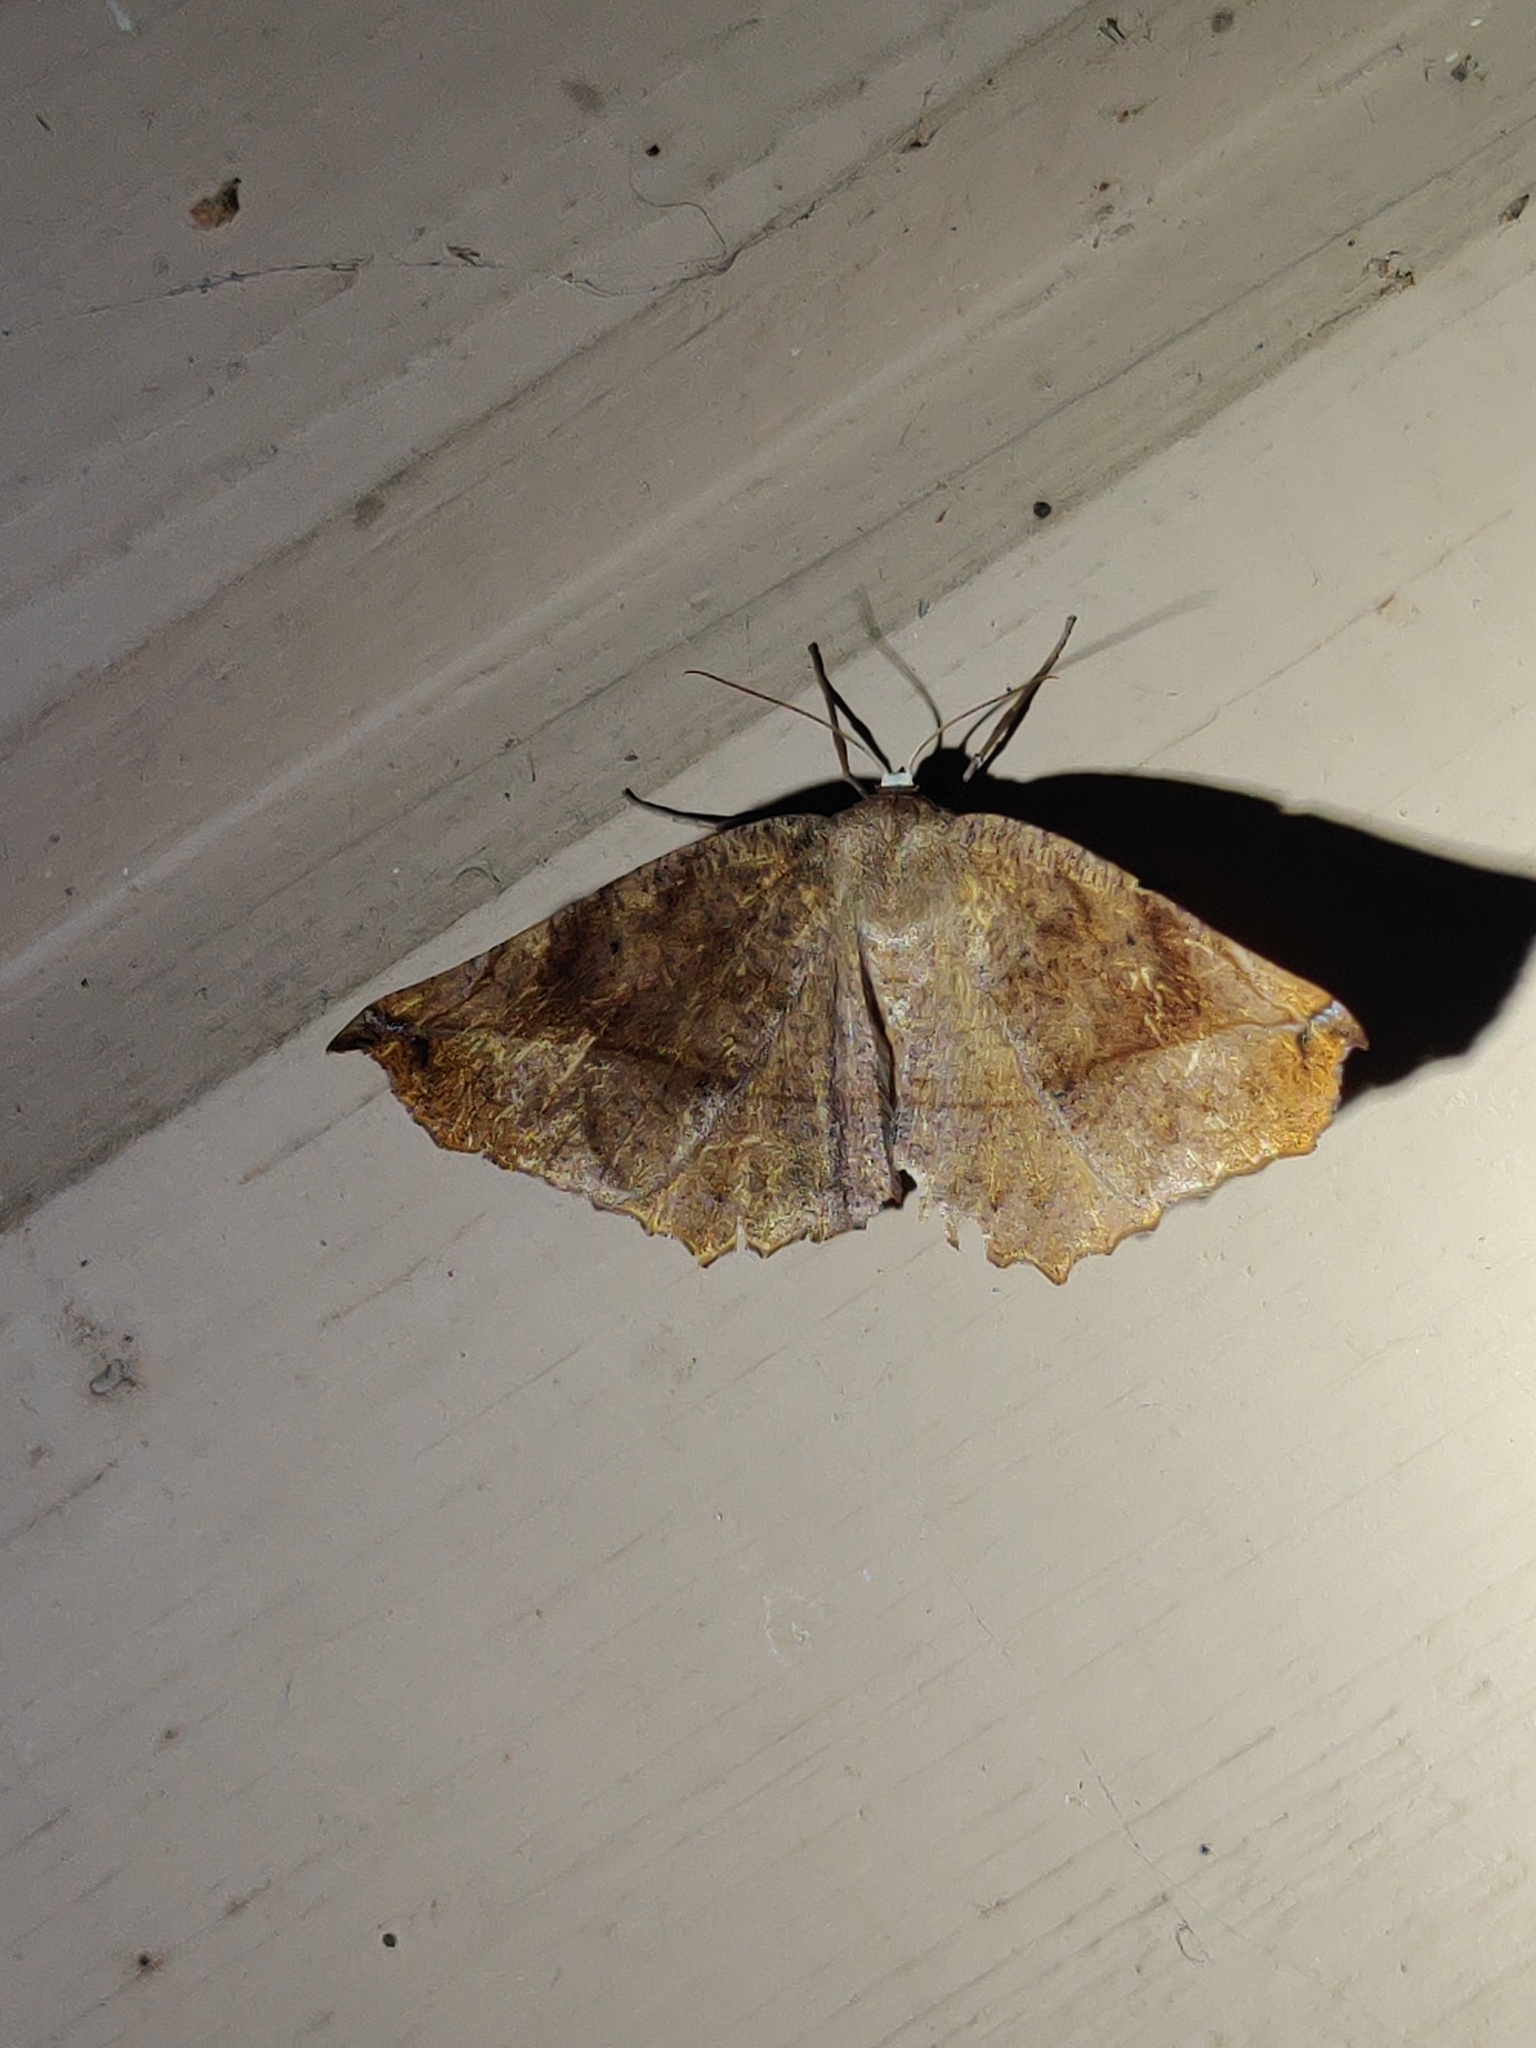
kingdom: Animalia
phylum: Arthropoda
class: Insecta
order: Lepidoptera
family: Geometridae
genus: Eutrapela
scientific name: Eutrapela clemataria
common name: Curved-toothed geometer
